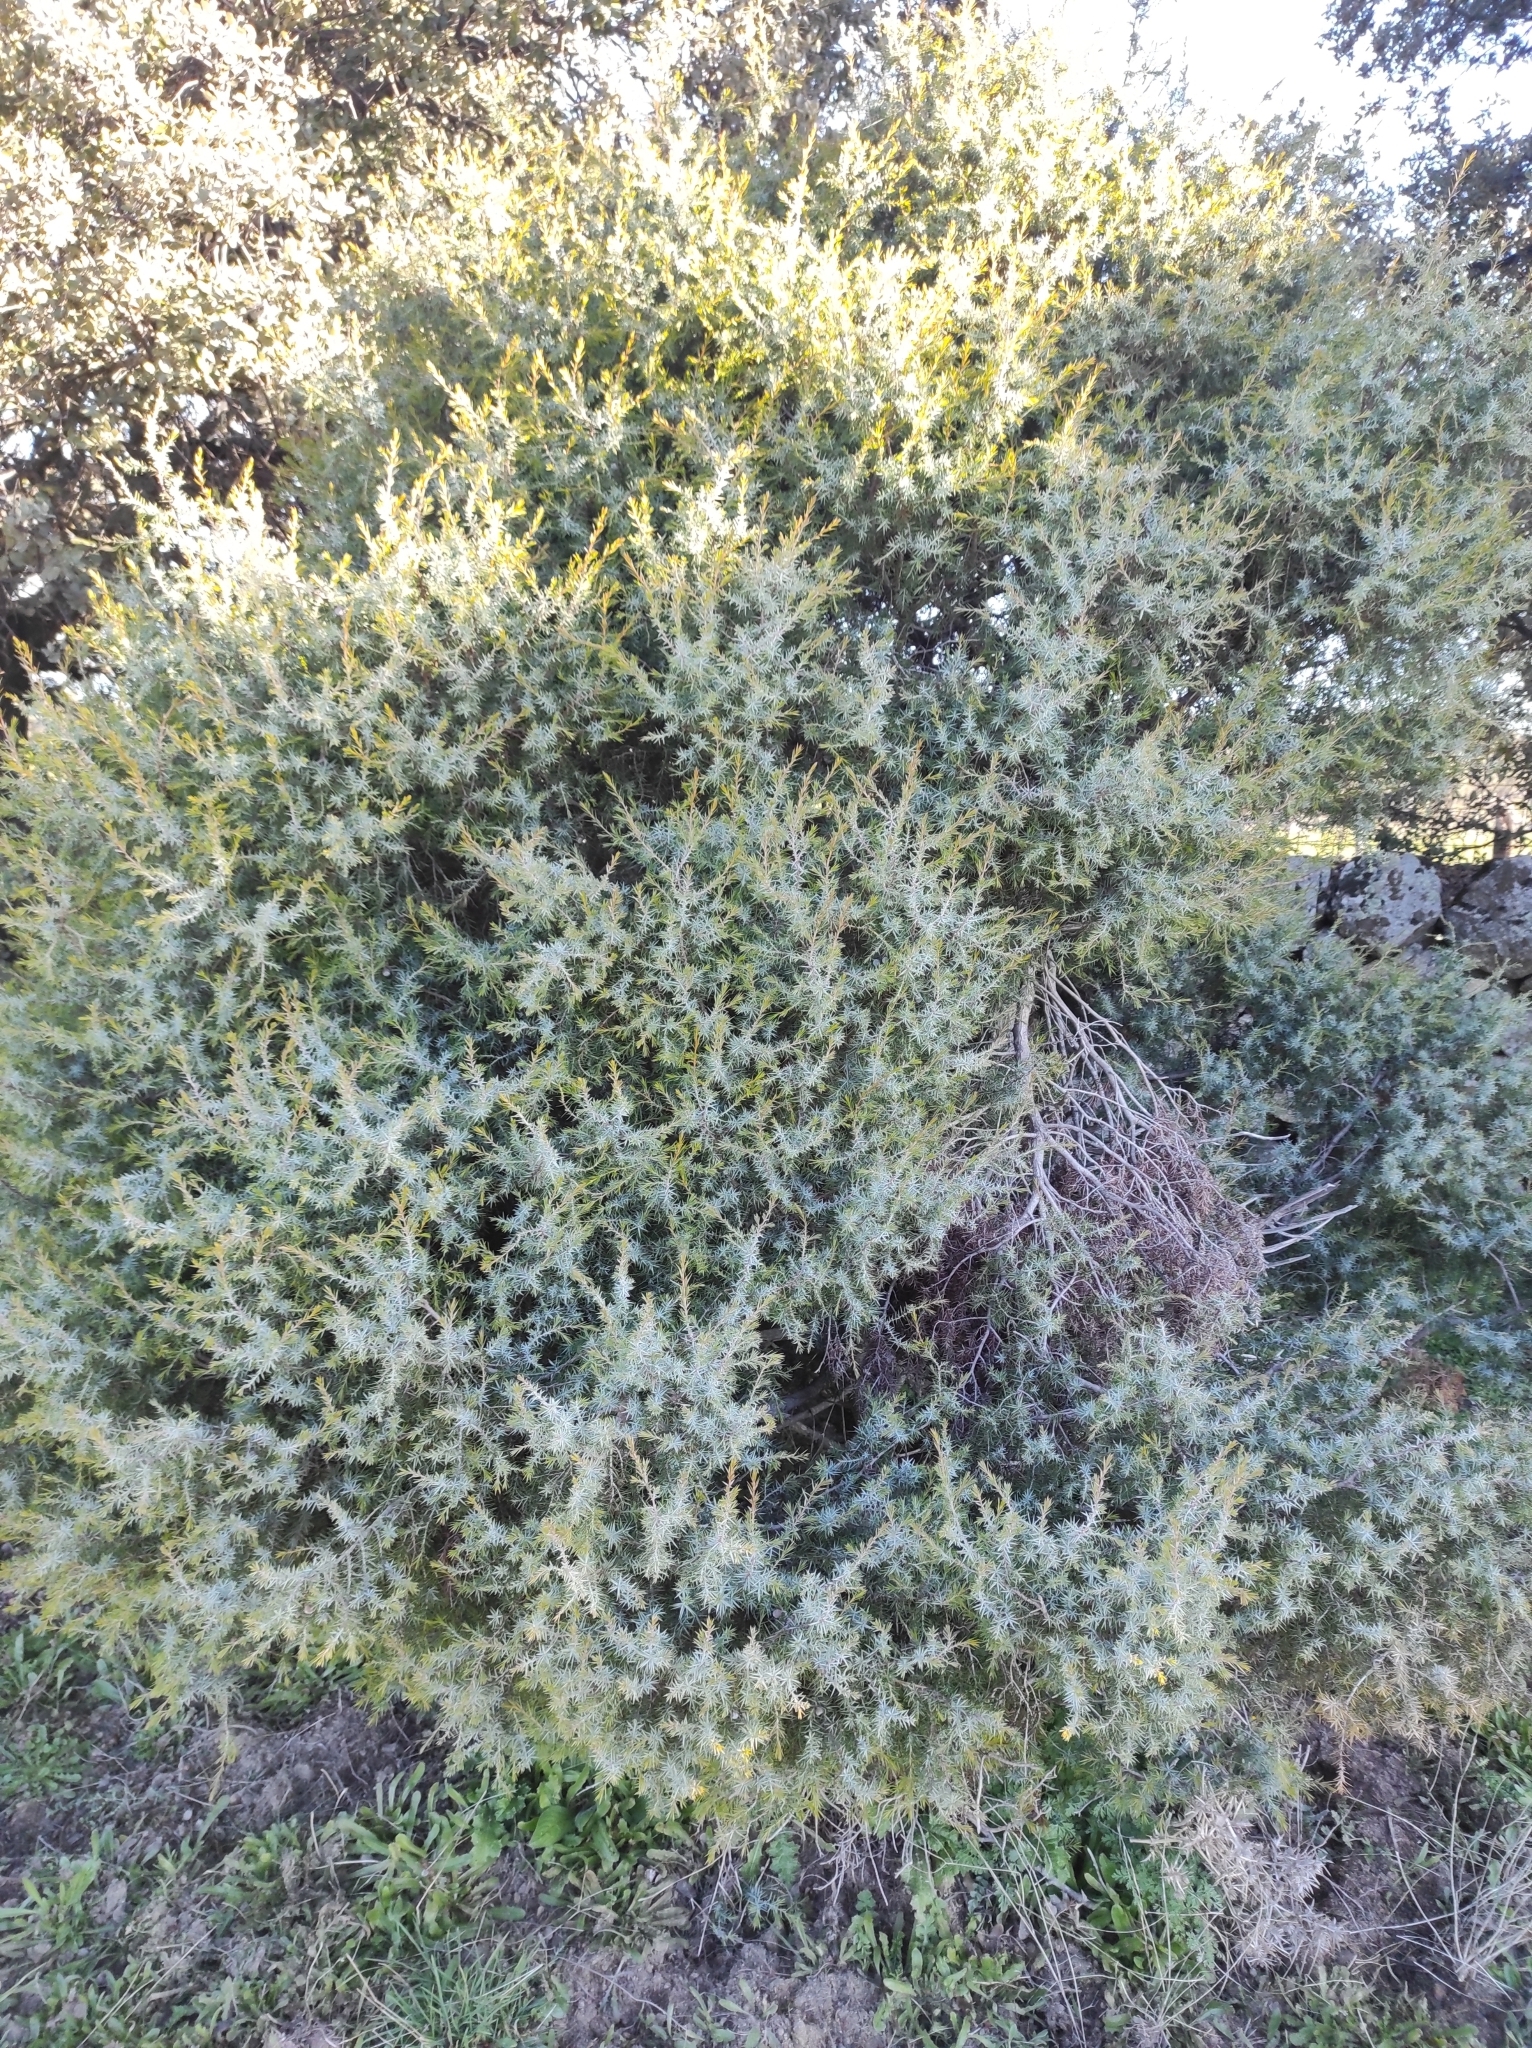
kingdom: Plantae
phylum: Tracheophyta
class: Pinopsida
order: Pinales
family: Cupressaceae
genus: Juniperus
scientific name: Juniperus oxycedrus
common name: Prickly juniper
